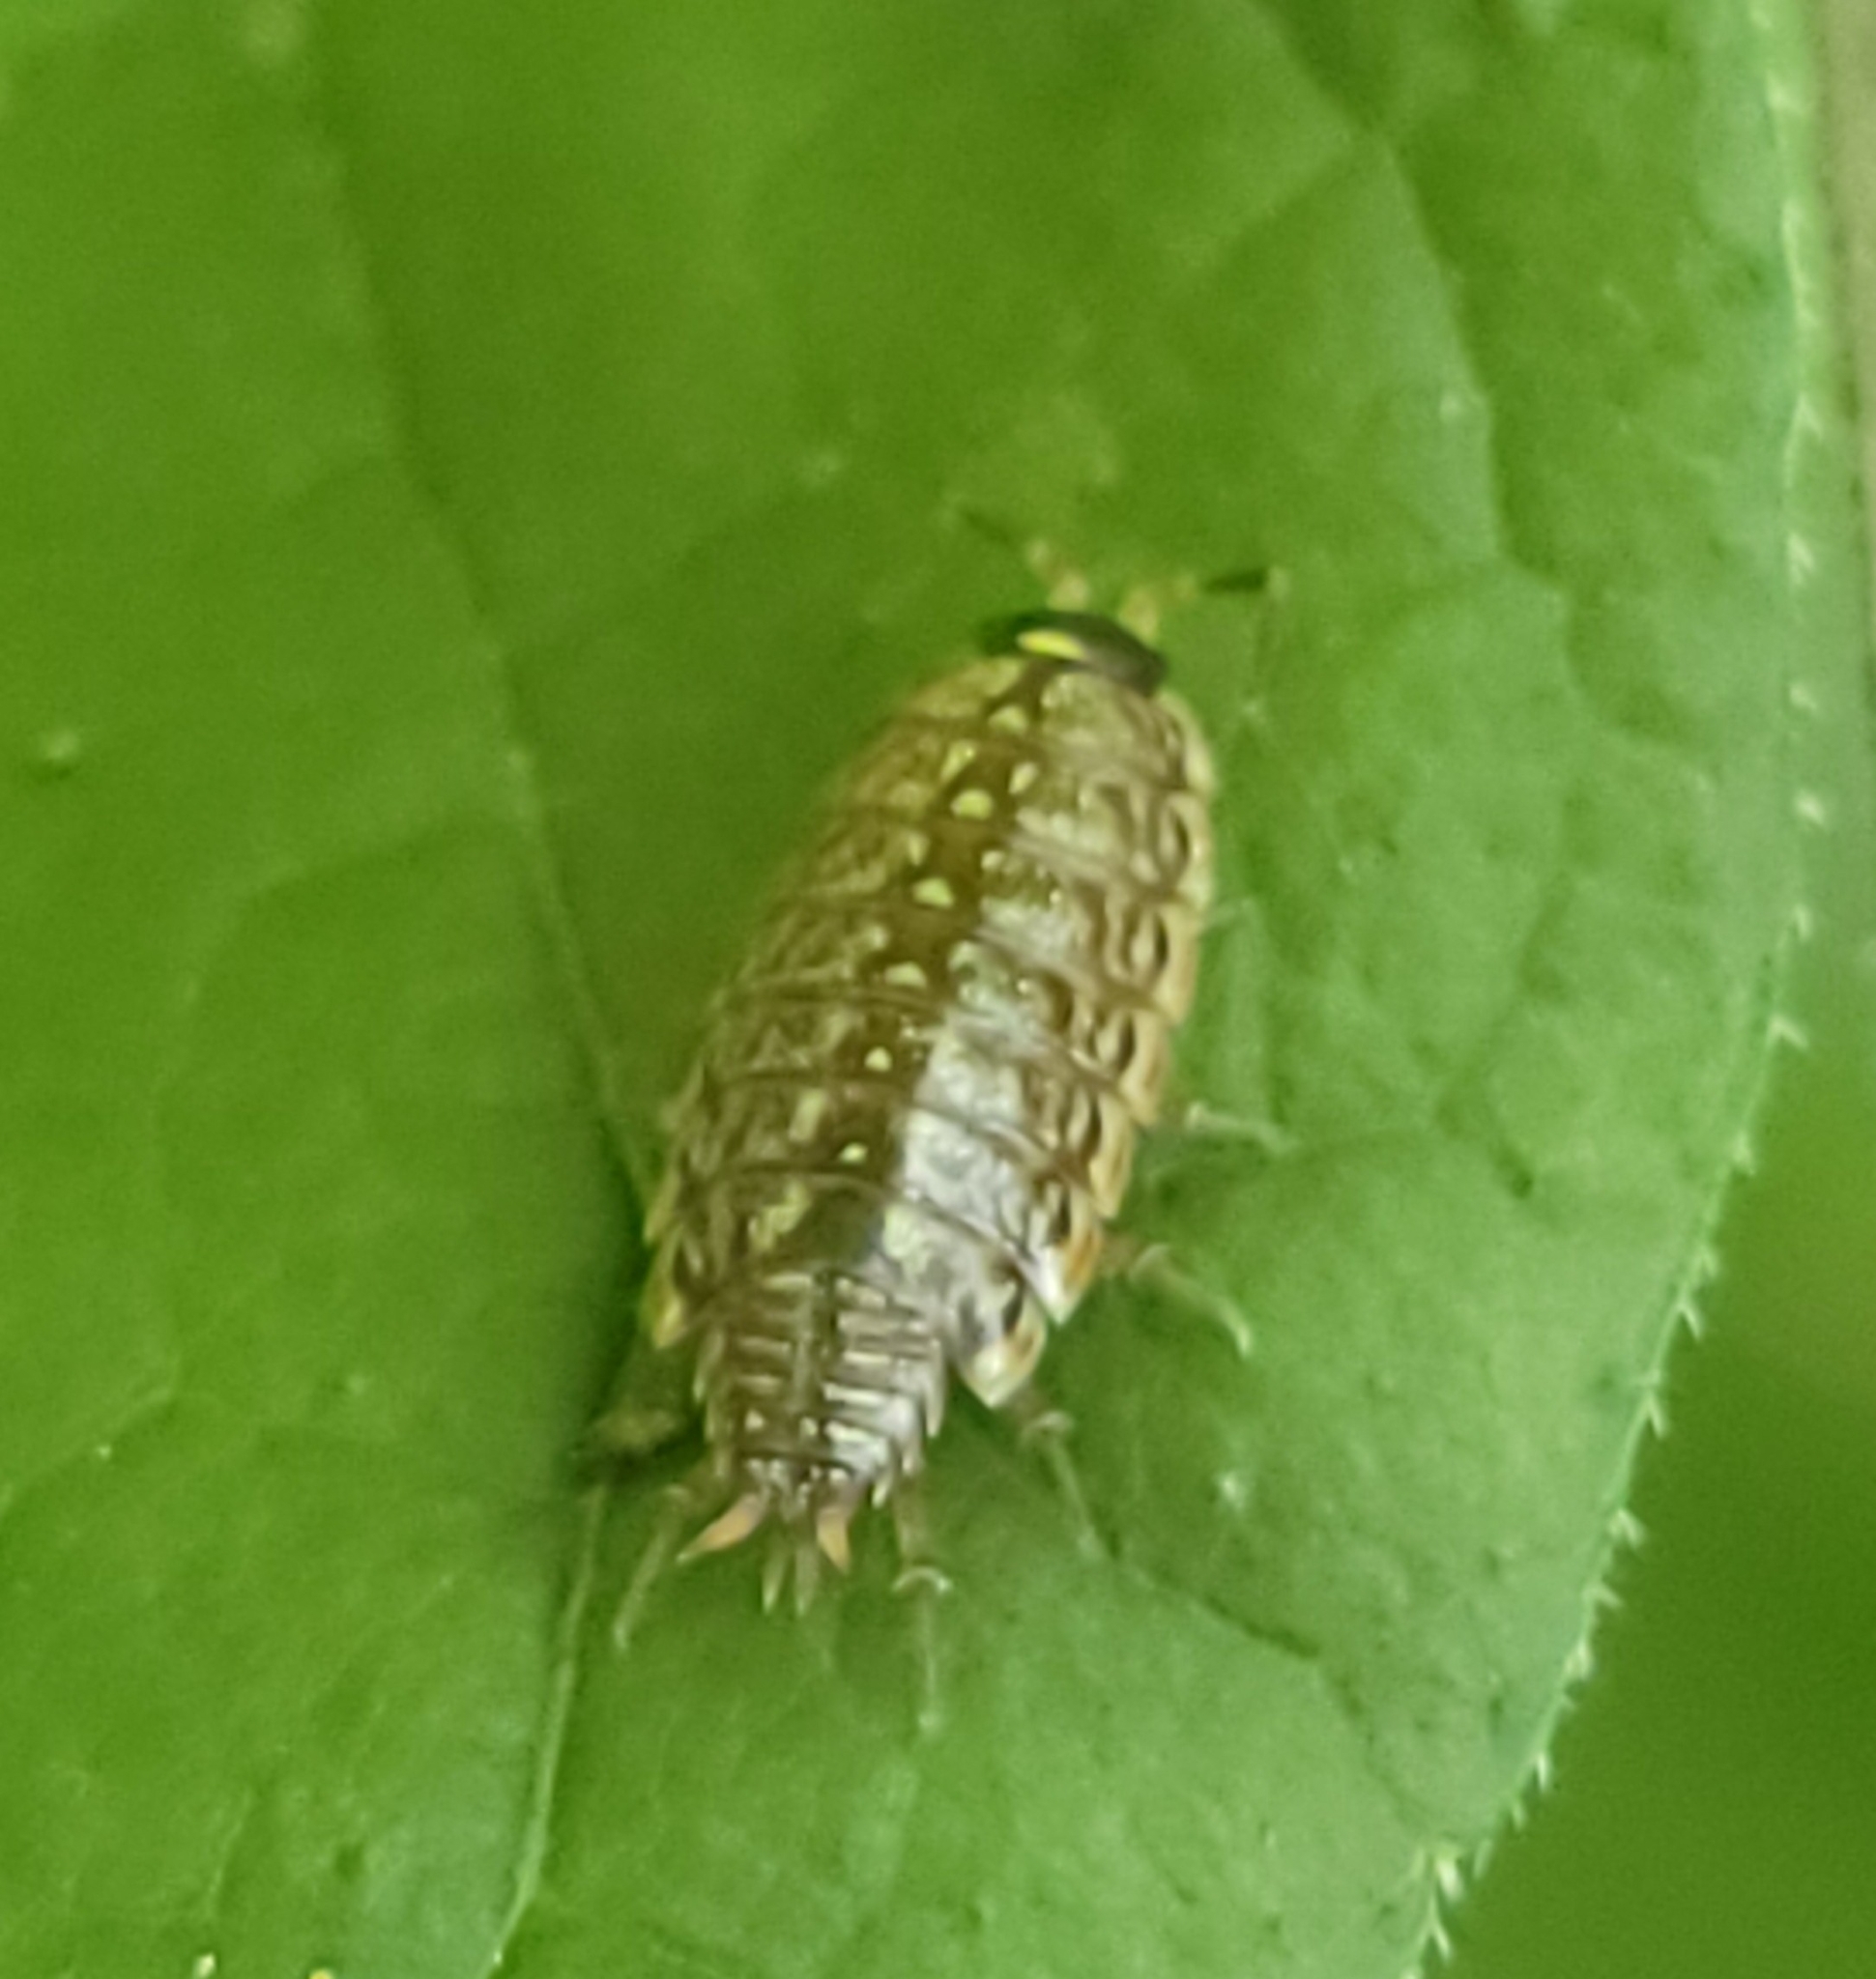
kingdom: Animalia
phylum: Arthropoda
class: Malacostraca
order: Isopoda
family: Philosciidae
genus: Philoscia
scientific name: Philoscia muscorum
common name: Common striped woodlouse
